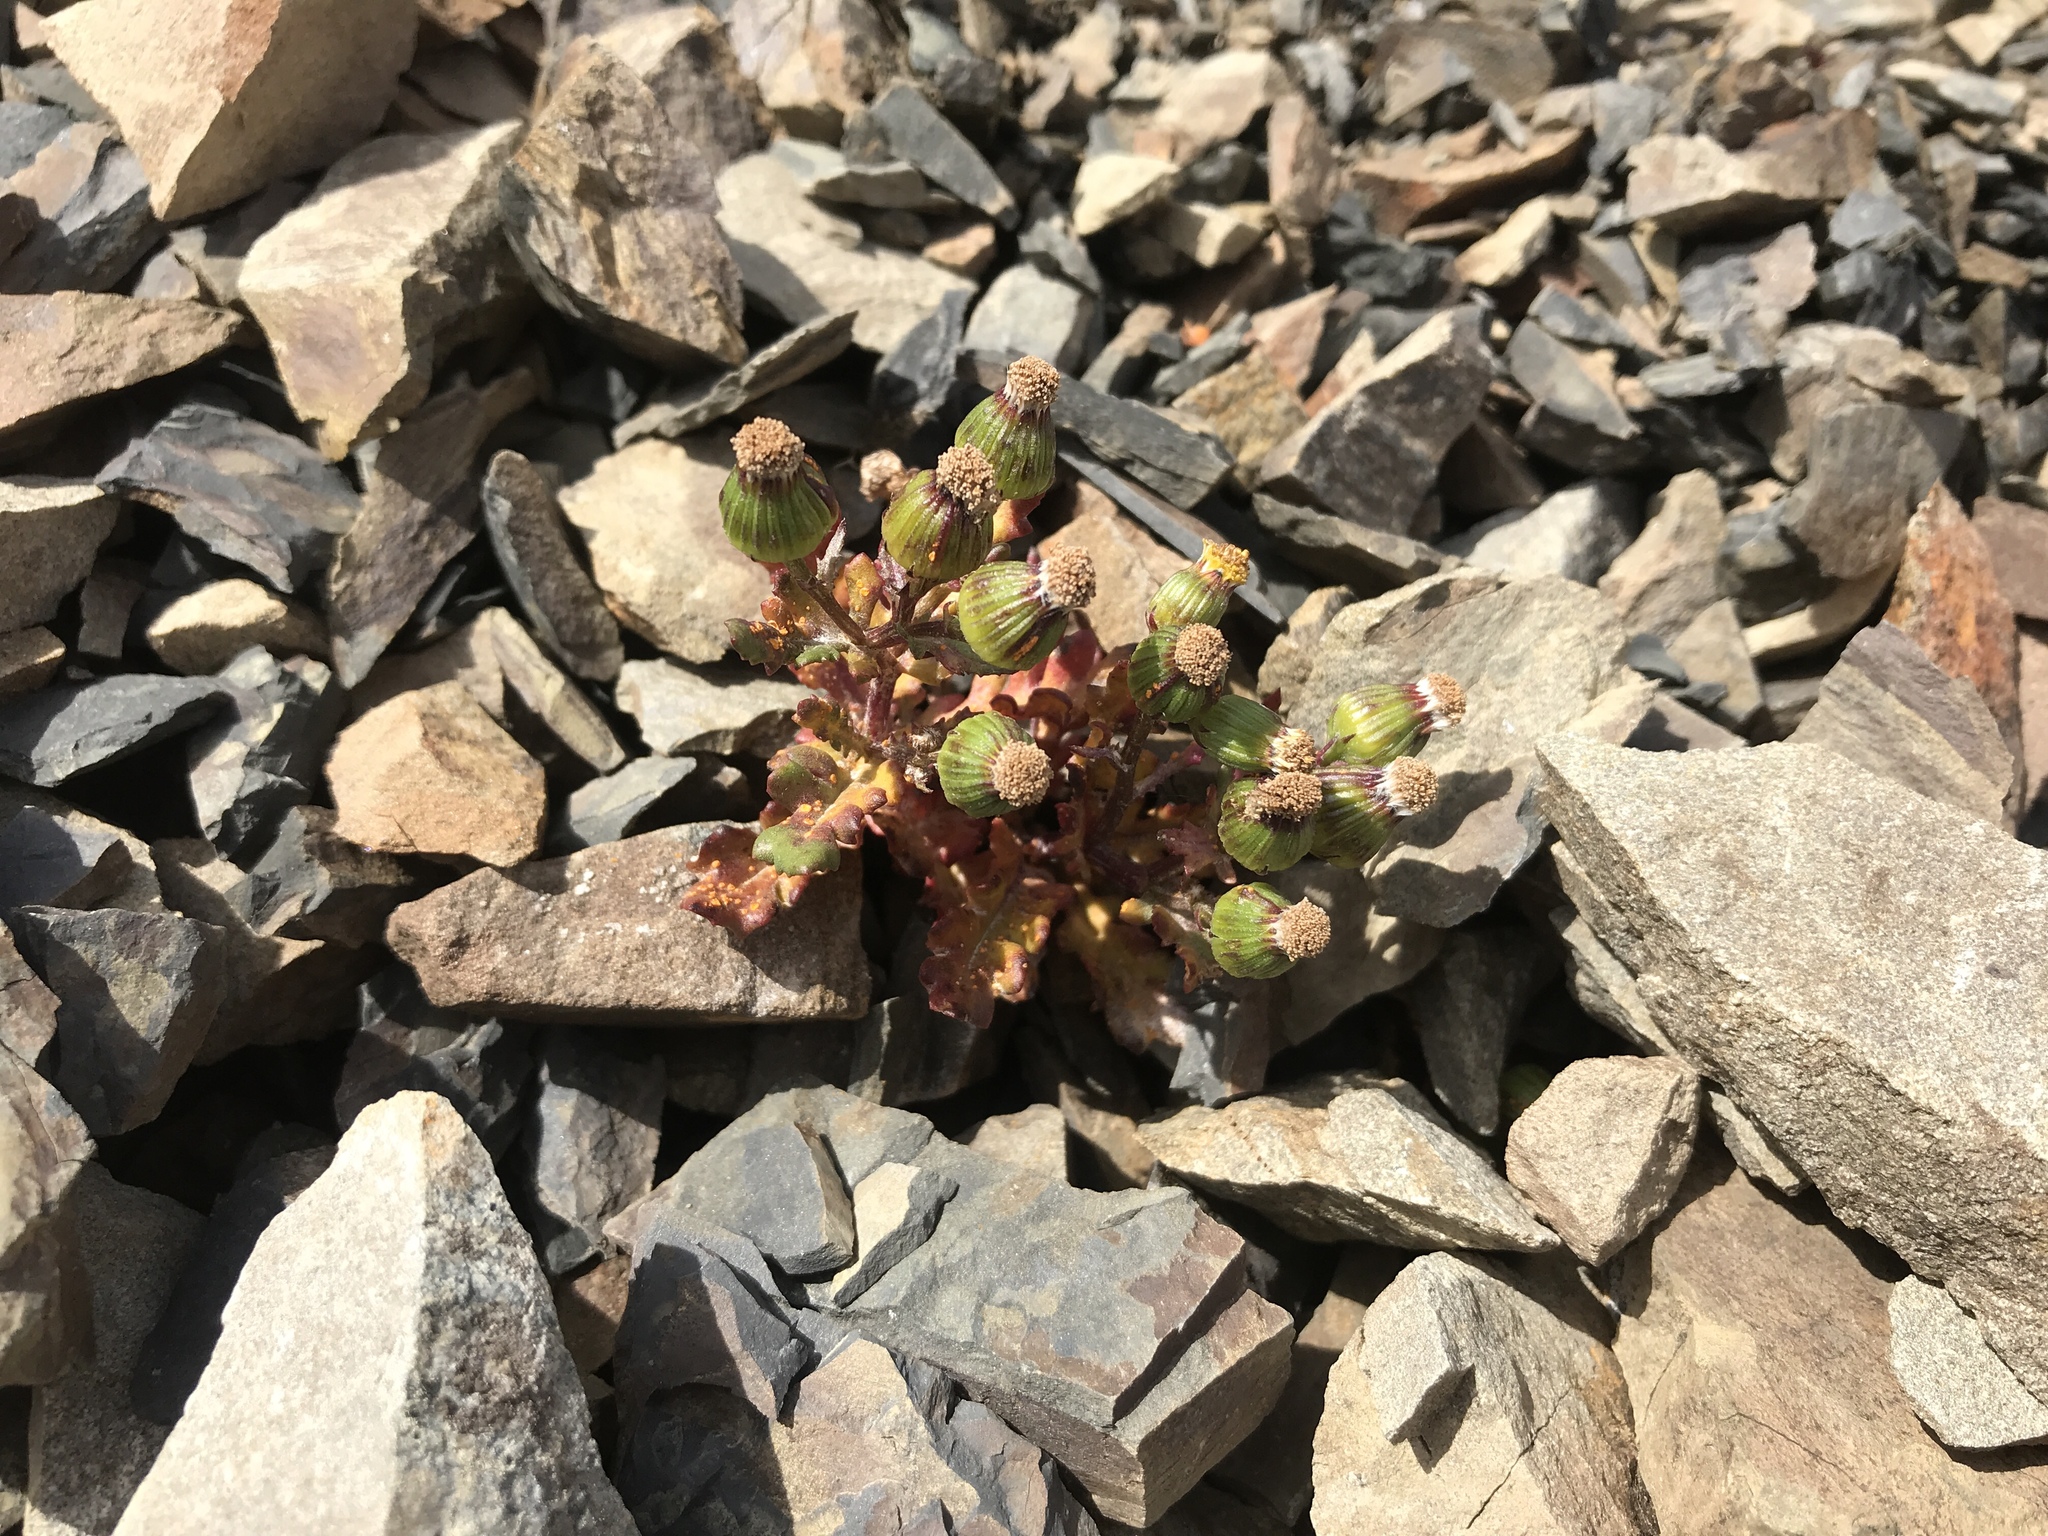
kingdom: Plantae
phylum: Tracheophyta
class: Magnoliopsida
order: Asterales
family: Asteraceae
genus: Senecio
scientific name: Senecio matatini
